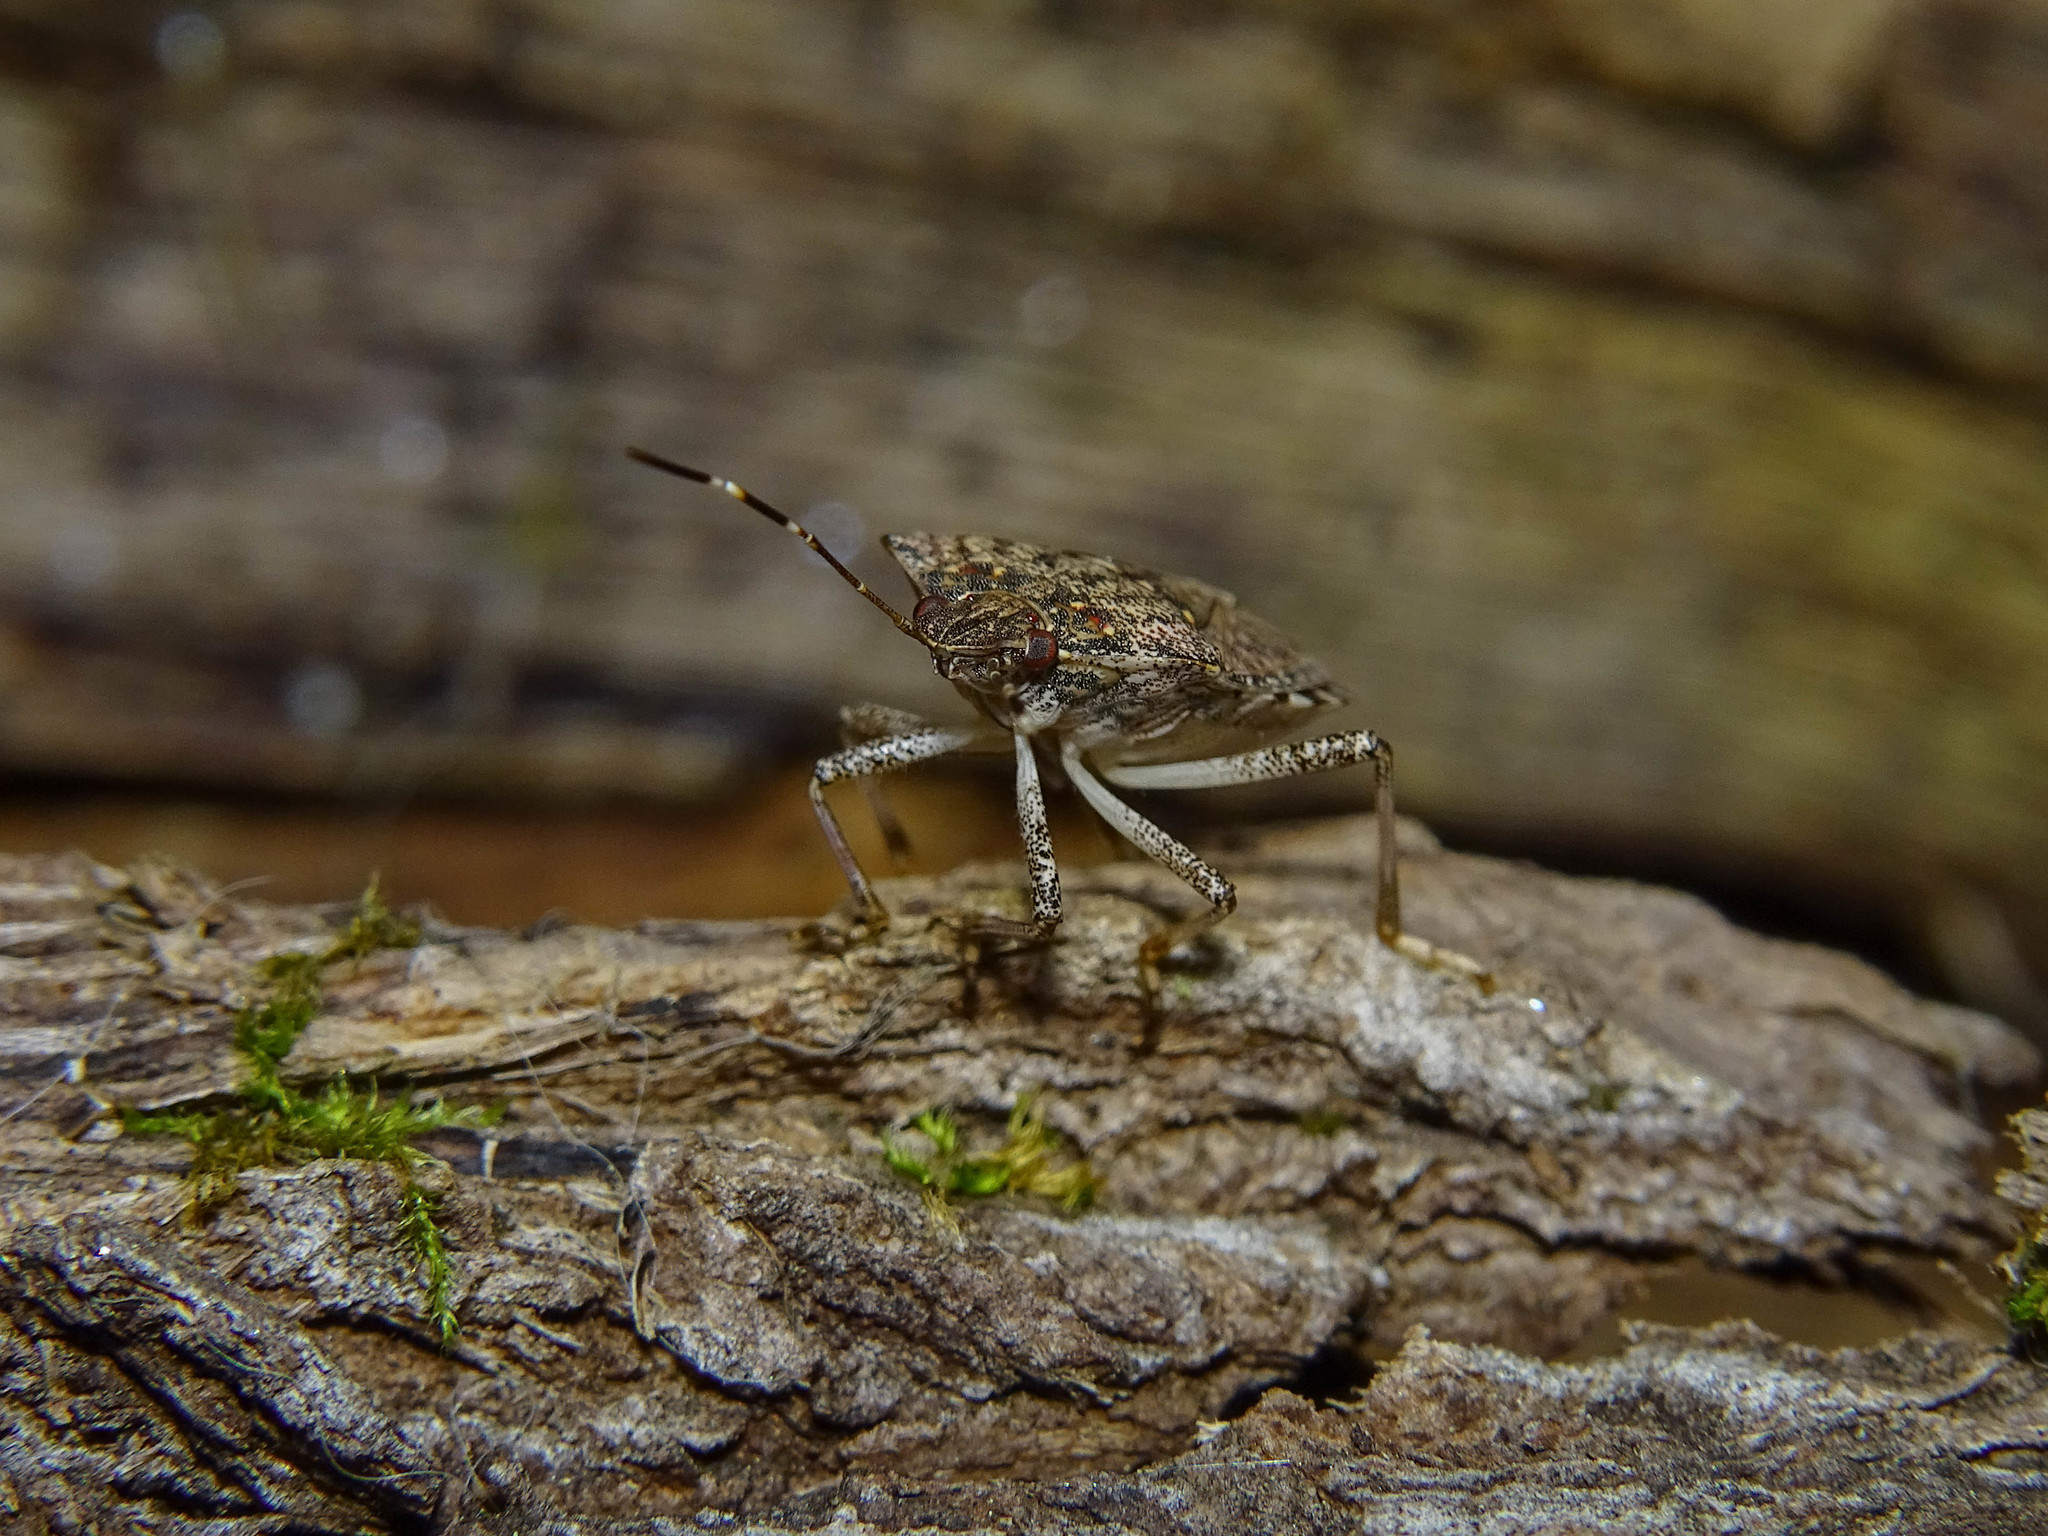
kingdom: Animalia
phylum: Arthropoda
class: Insecta
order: Hemiptera
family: Pentatomidae
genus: Halyomorpha
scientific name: Halyomorpha halys
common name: Brown marmorated stink bug
